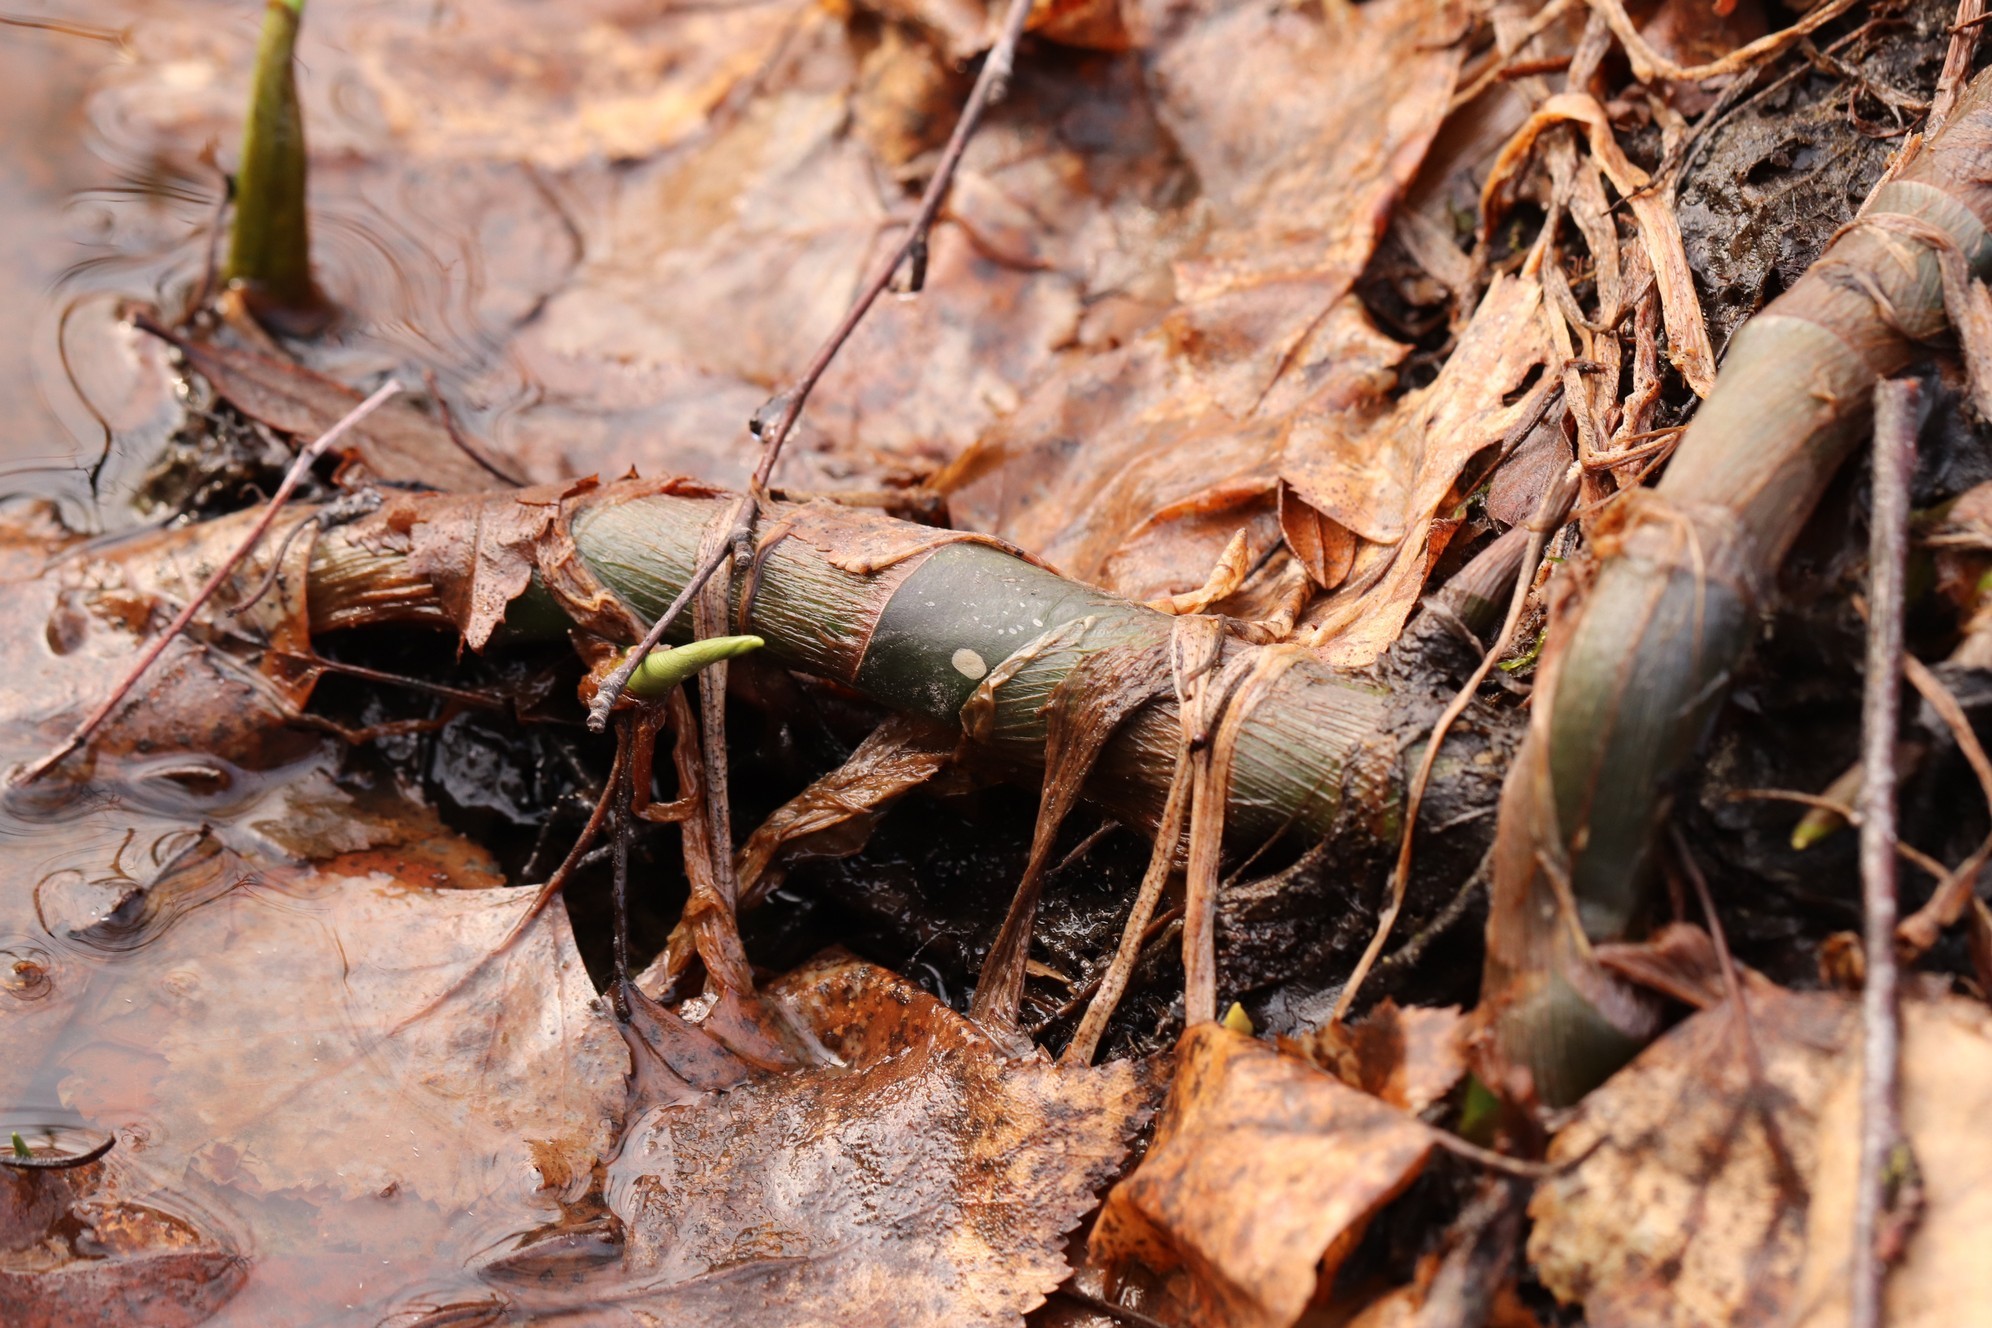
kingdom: Plantae
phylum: Tracheophyta
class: Liliopsida
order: Alismatales
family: Araceae
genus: Calla
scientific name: Calla palustris
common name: Bog arum
